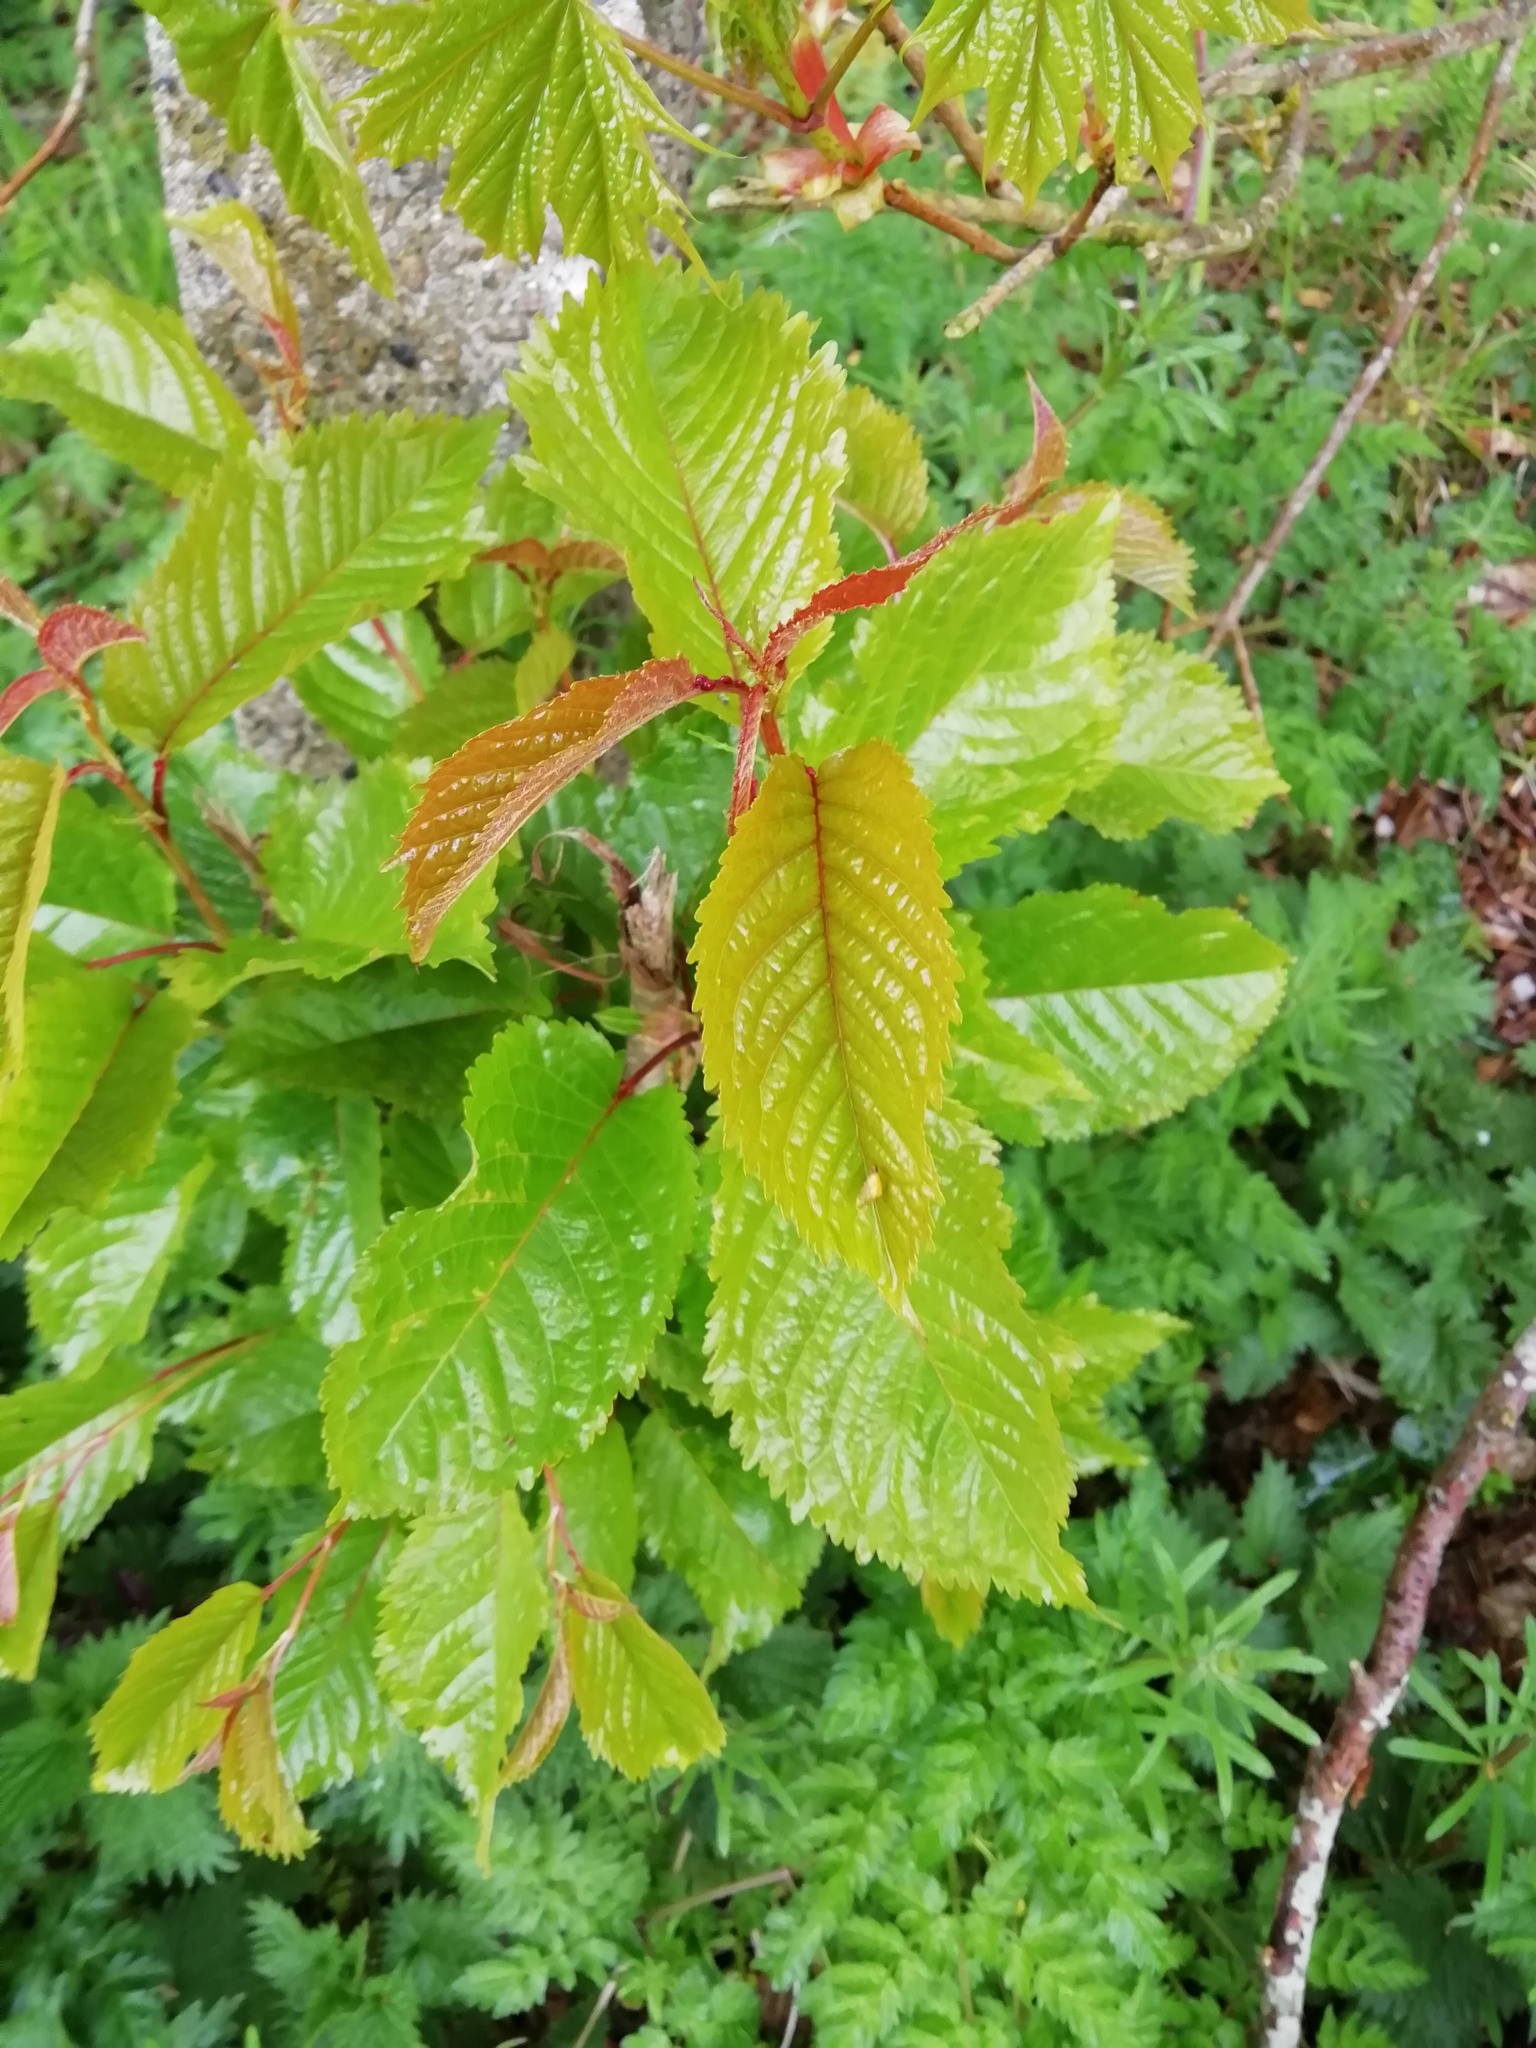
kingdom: Plantae
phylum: Tracheophyta
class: Magnoliopsida
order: Rosales
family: Rosaceae
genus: Prunus
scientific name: Prunus avium
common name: Sweet cherry
